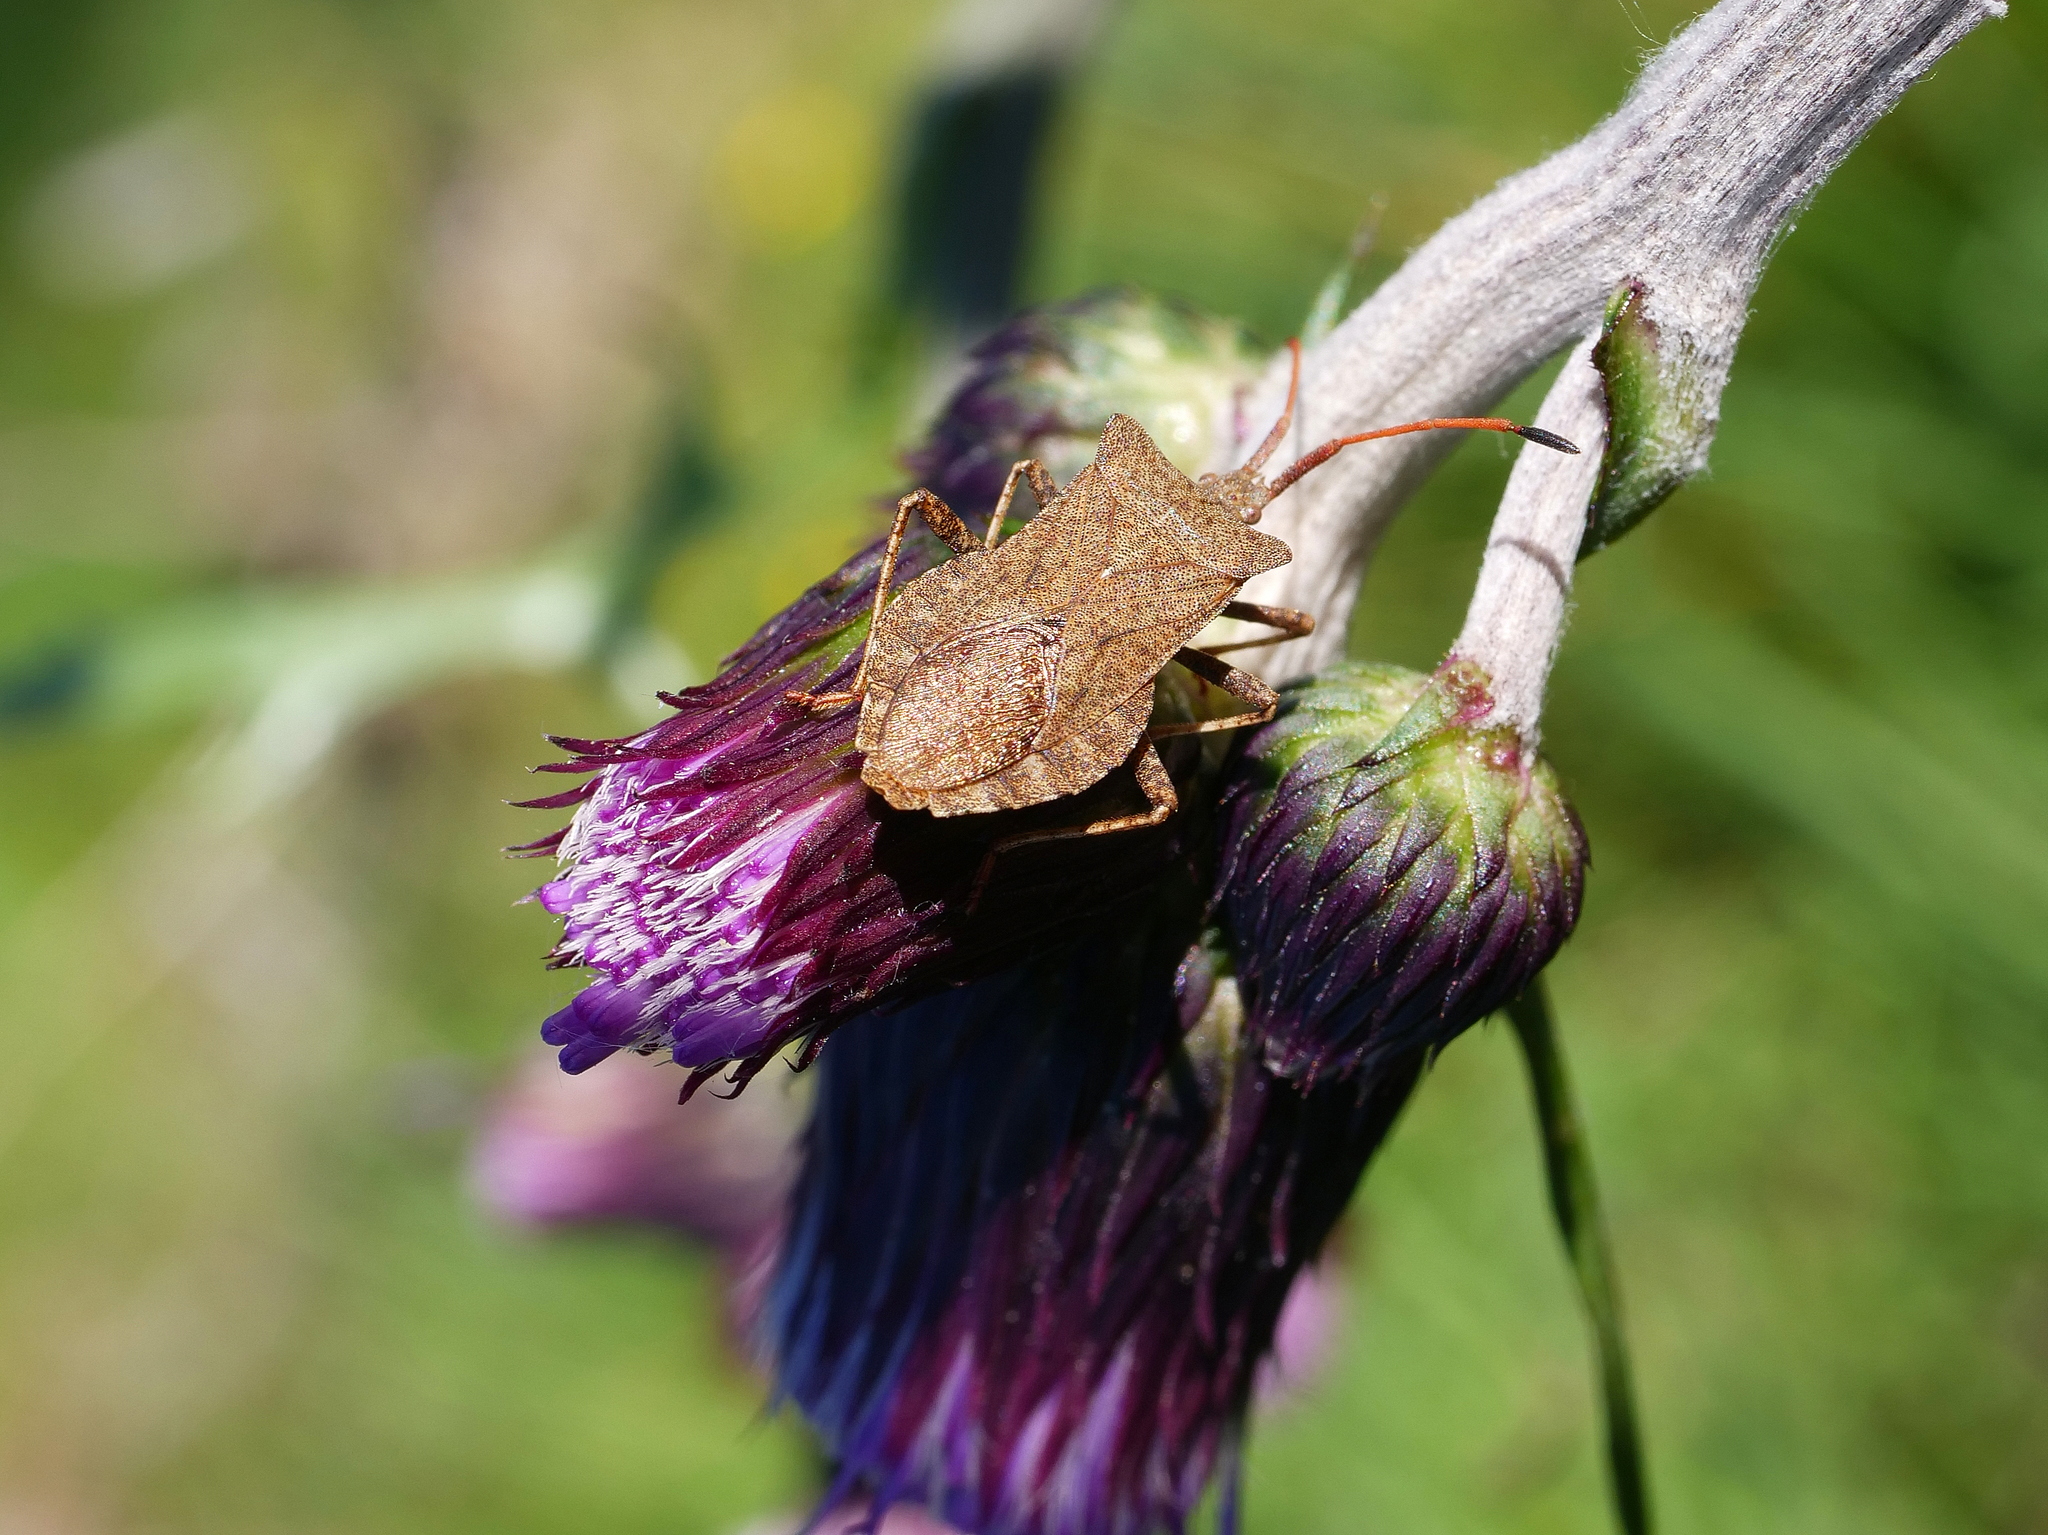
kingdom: Animalia
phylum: Arthropoda
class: Insecta
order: Hemiptera
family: Coreidae
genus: Coreus
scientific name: Coreus marginatus
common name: Dock bug
